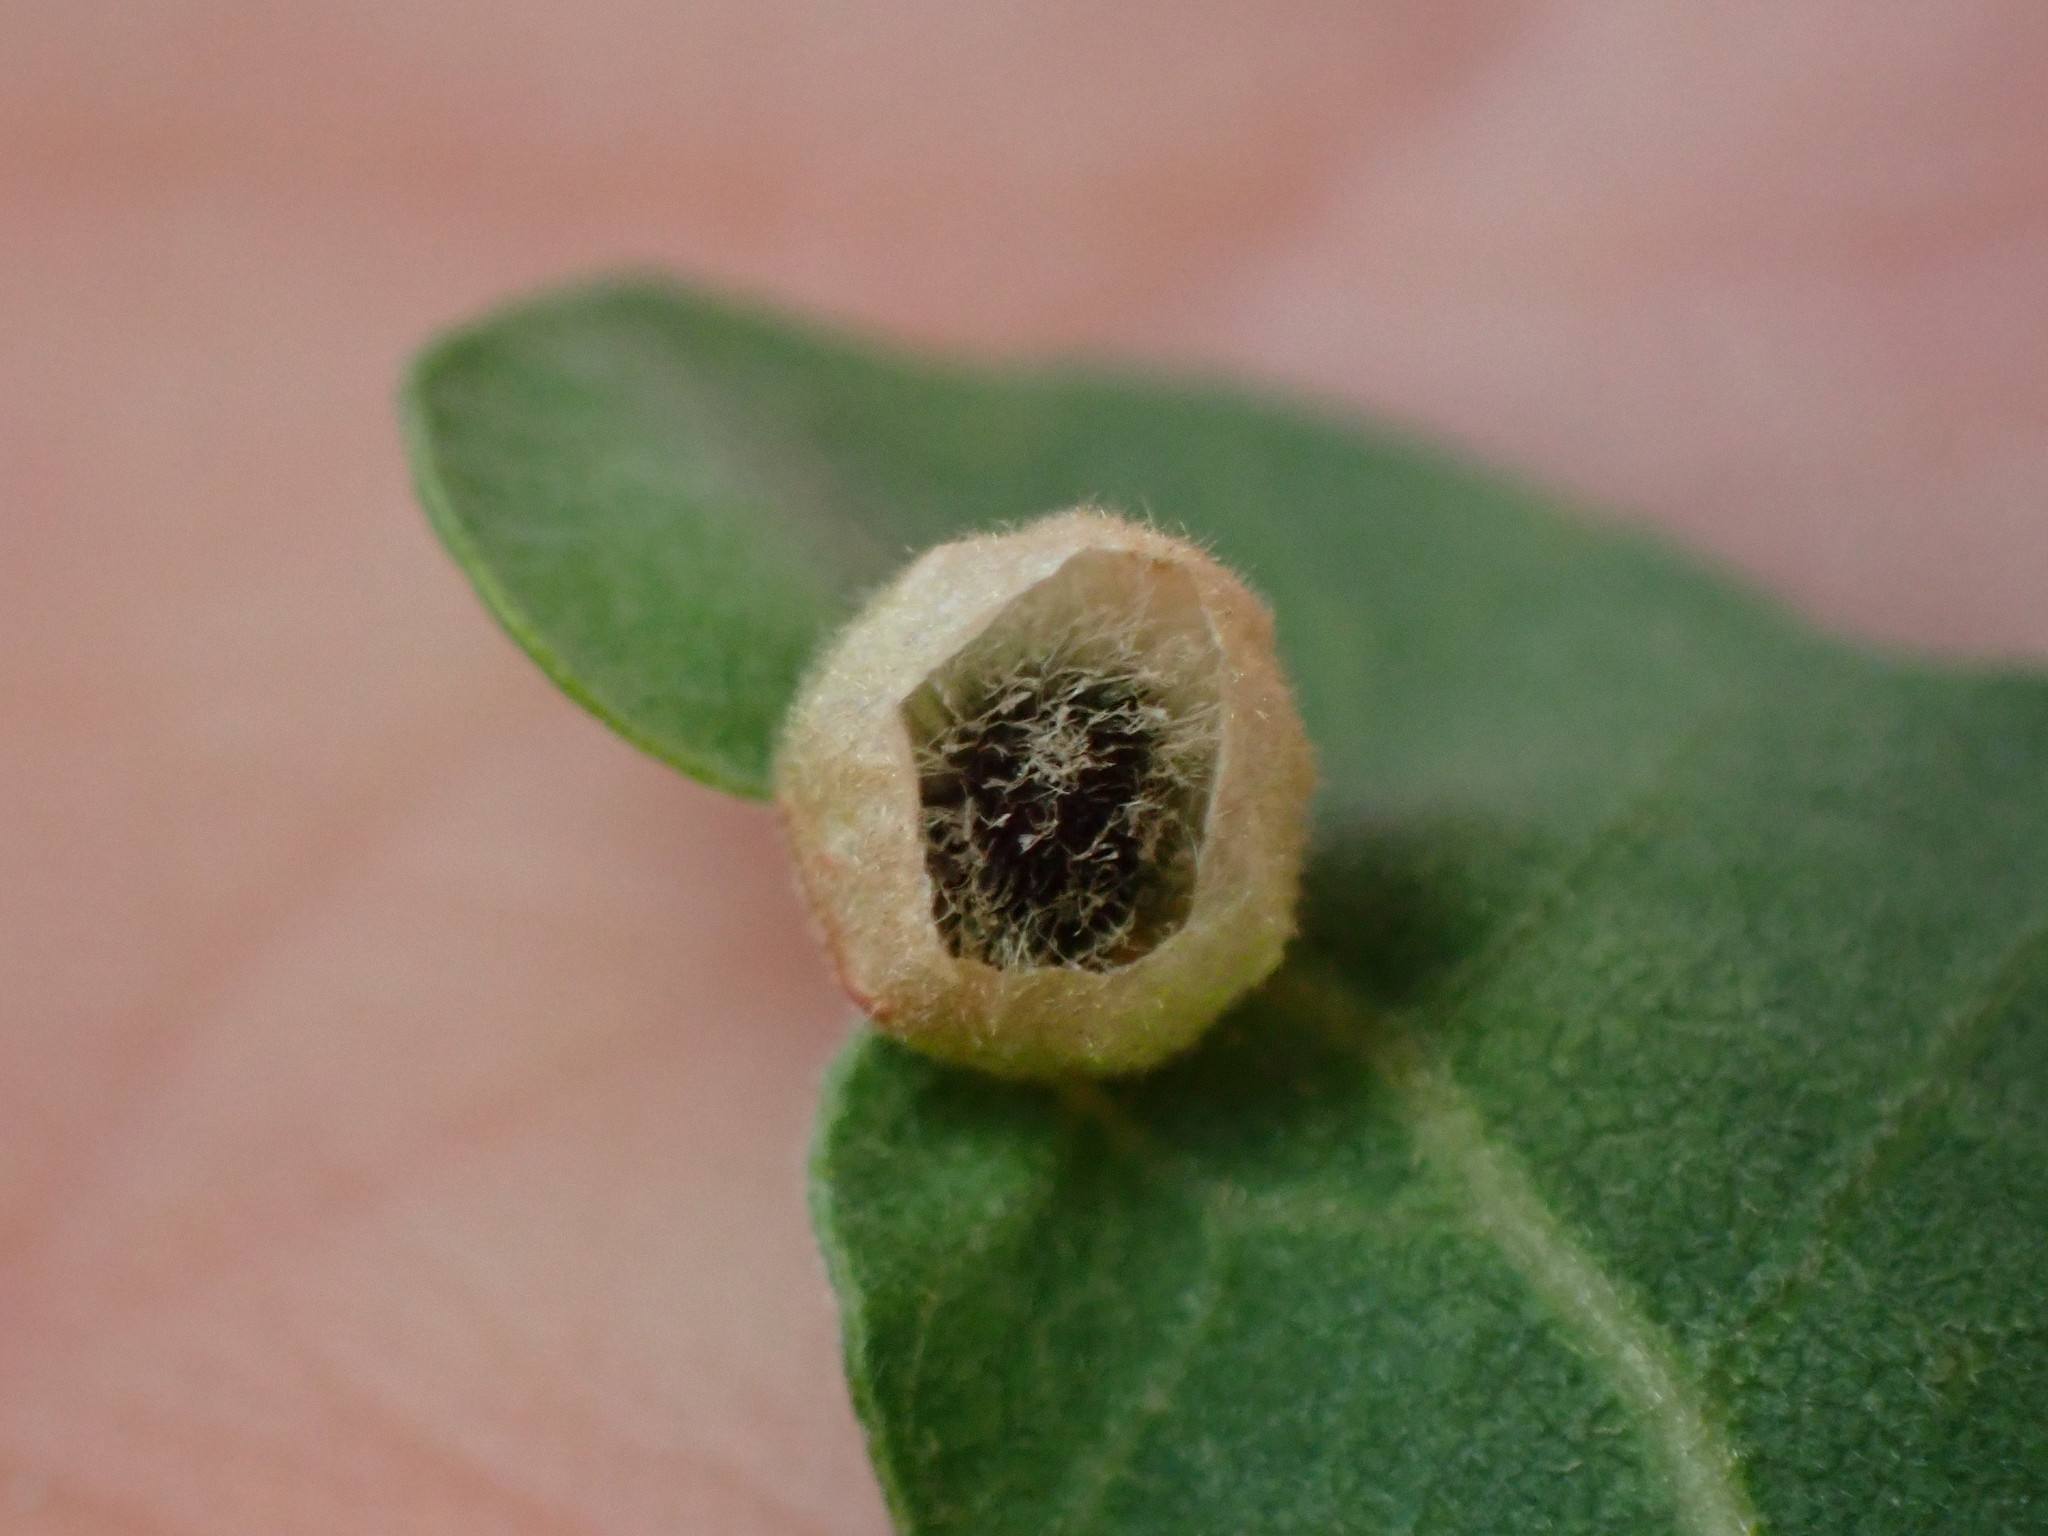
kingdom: Animalia
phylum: Arthropoda
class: Insecta
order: Hymenoptera
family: Cynipidae
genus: Andricus
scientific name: Andricus
